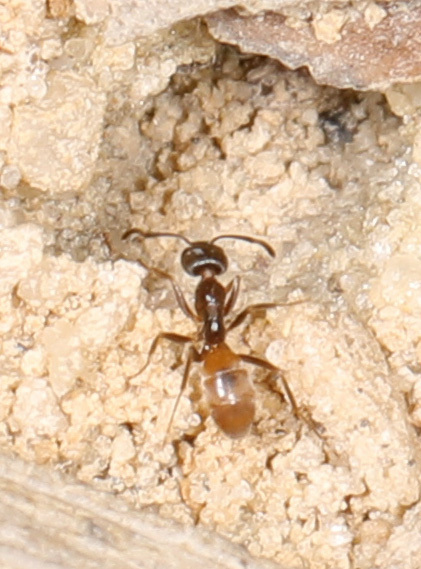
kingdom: Animalia
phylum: Arthropoda
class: Insecta
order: Hymenoptera
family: Formicidae
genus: Forelius
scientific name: Forelius pruinosus
